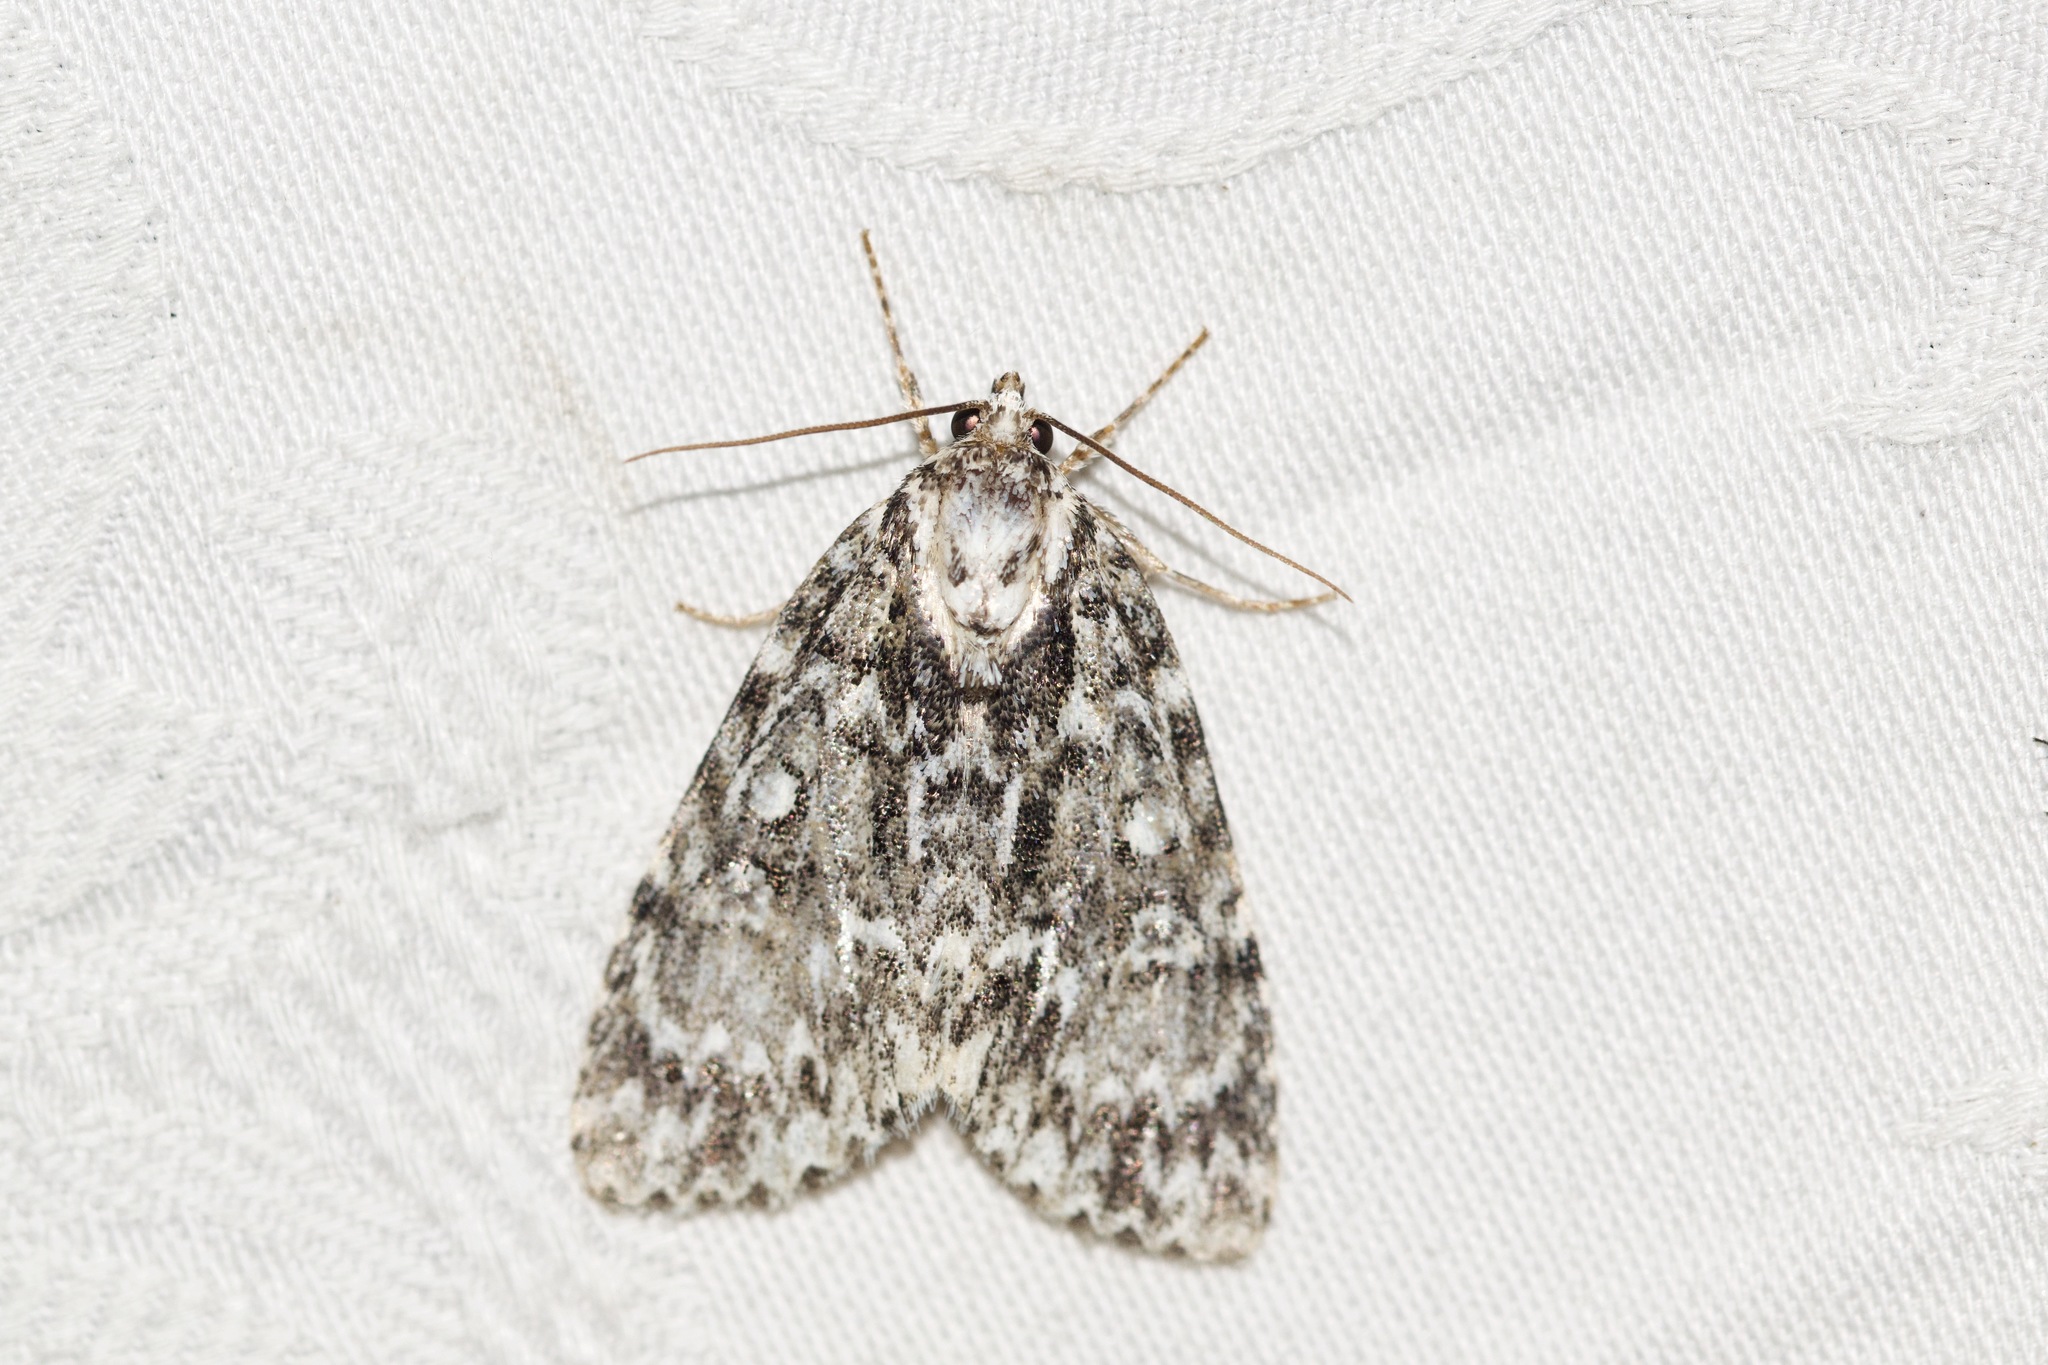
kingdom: Animalia
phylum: Arthropoda
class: Insecta
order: Lepidoptera
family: Noctuidae
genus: Acronicta
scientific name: Acronicta fragilis
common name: Fragile dagger
